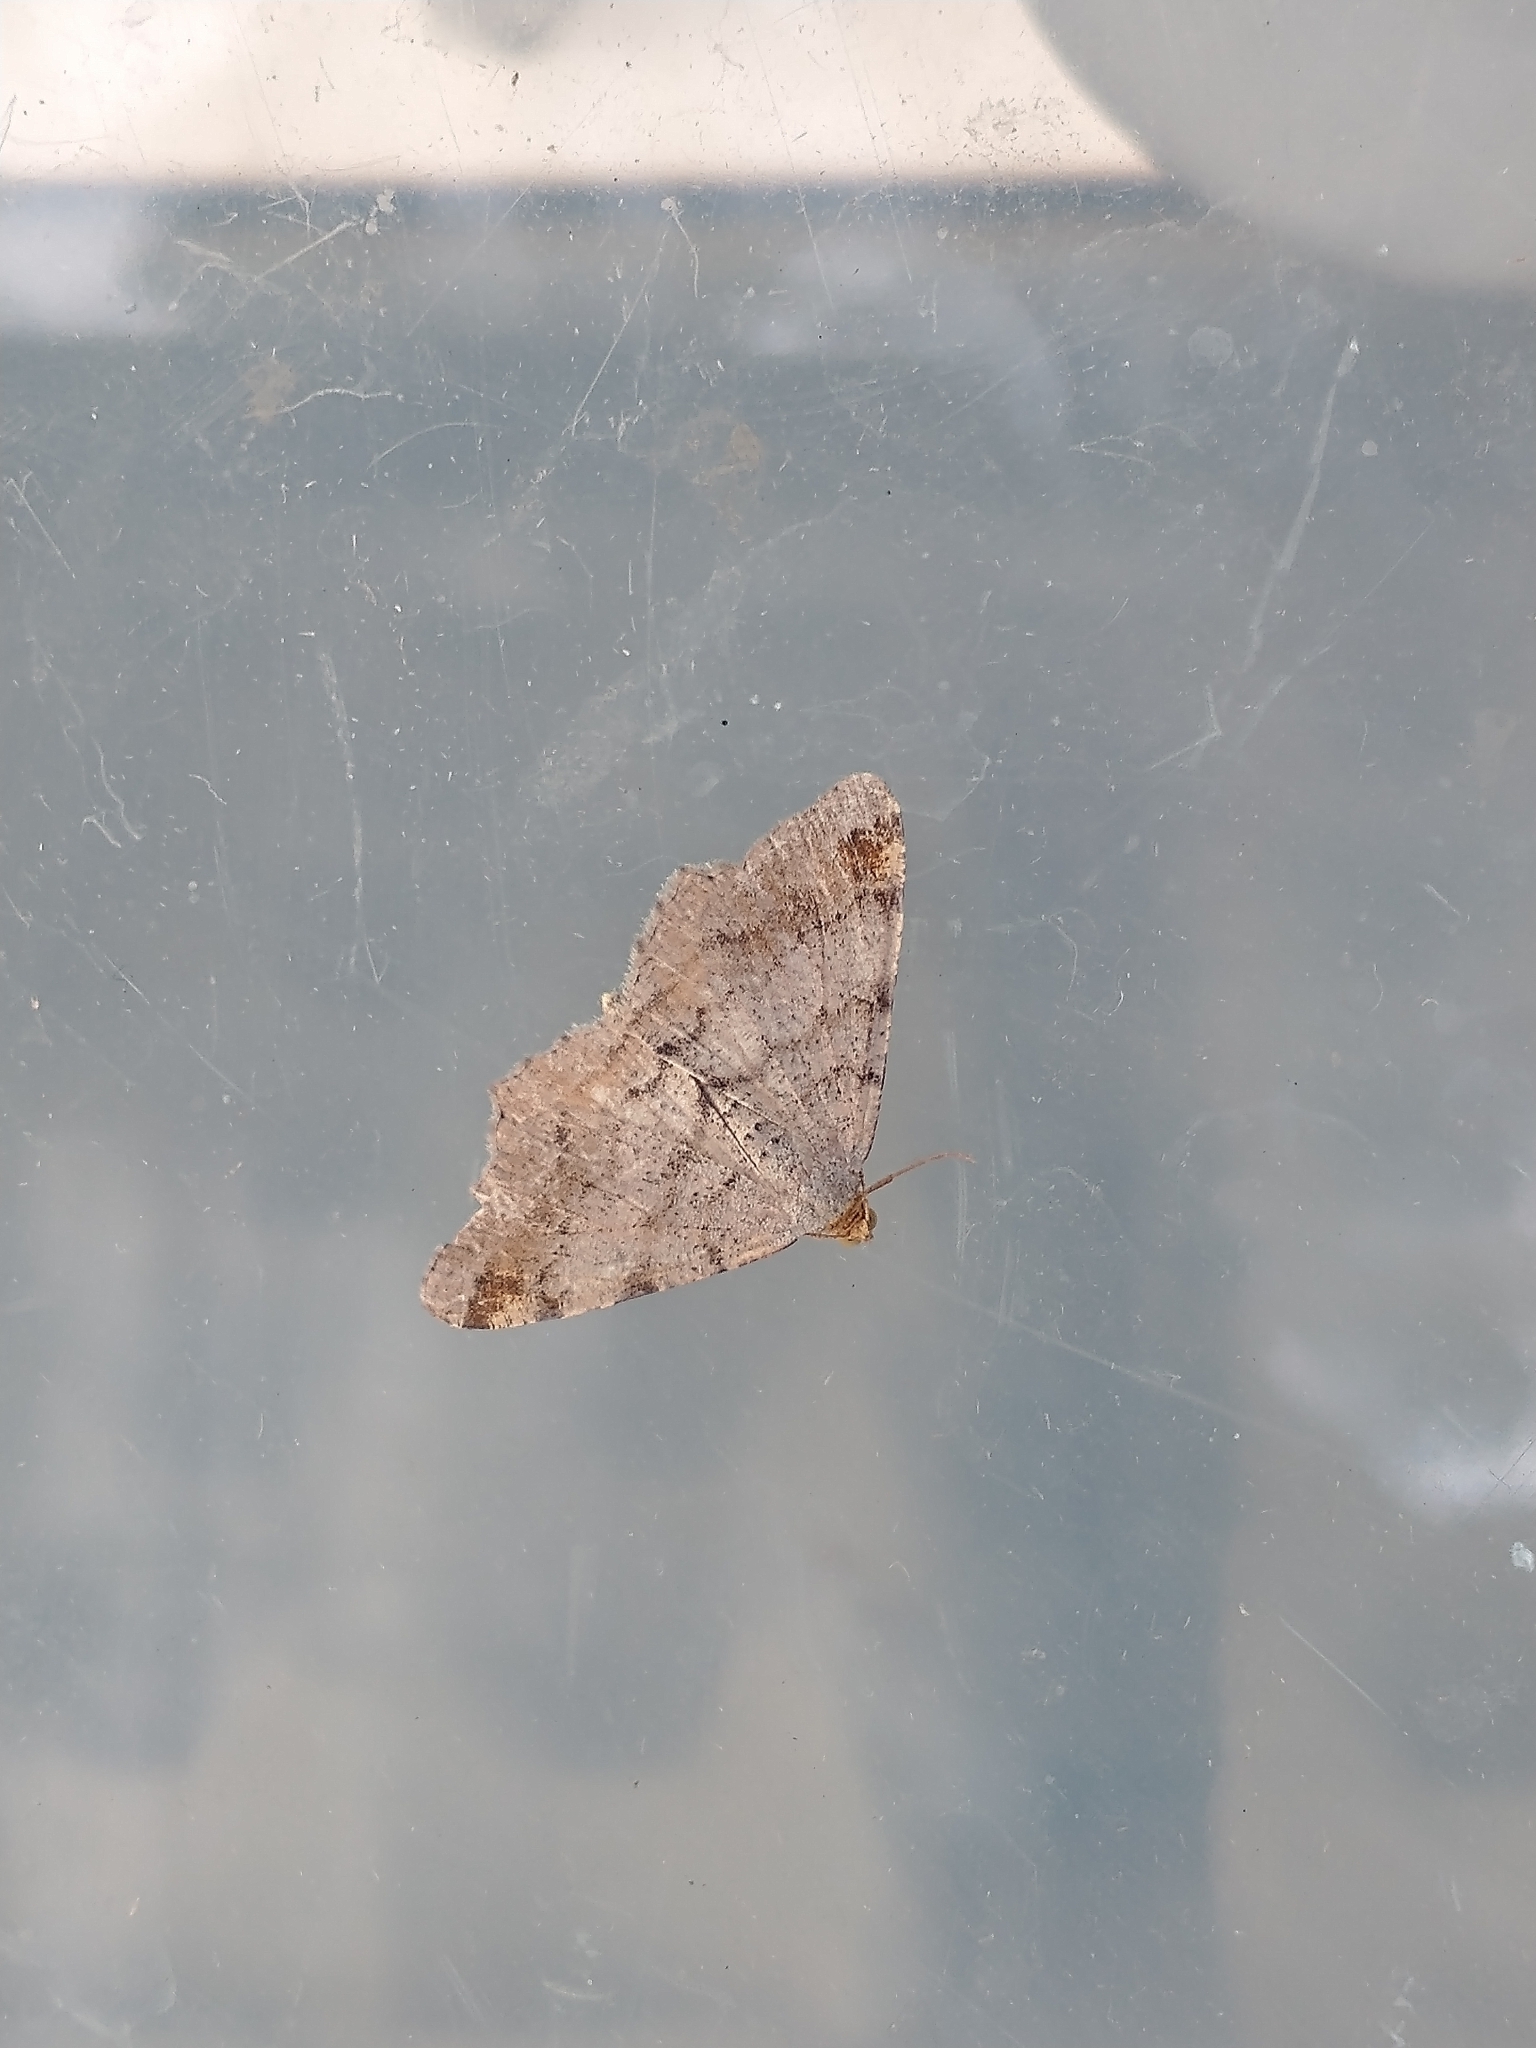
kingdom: Animalia
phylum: Arthropoda
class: Insecta
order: Lepidoptera
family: Geometridae
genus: Macaria
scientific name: Macaria liturata
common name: Tawny-barred angle
